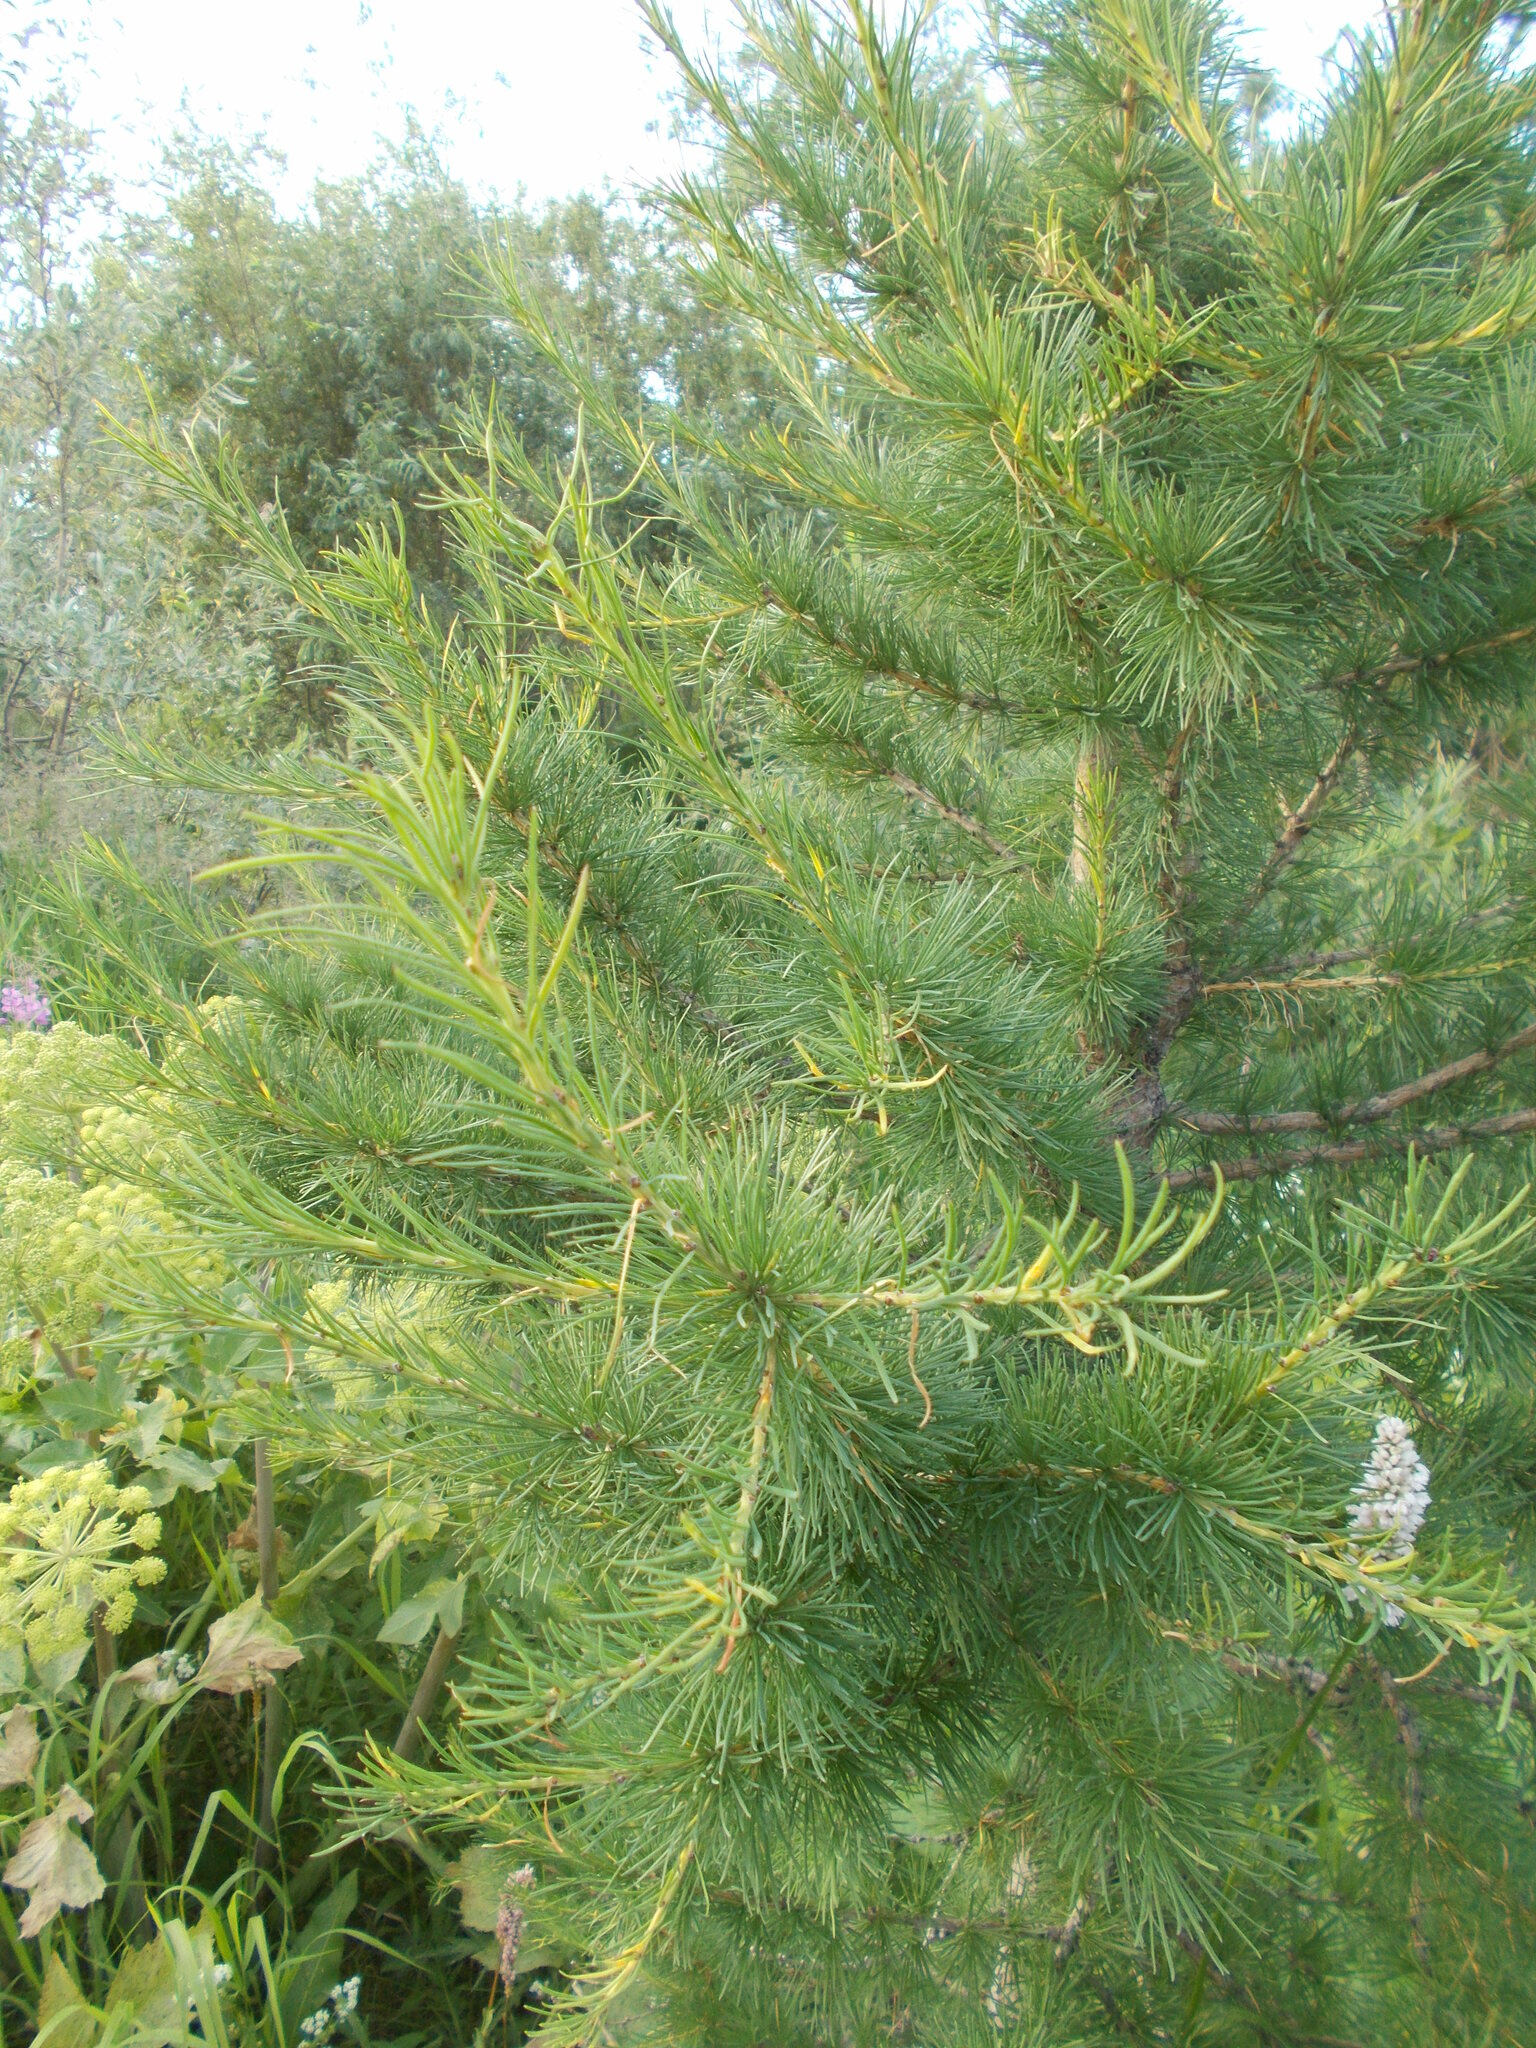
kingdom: Plantae
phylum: Tracheophyta
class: Pinopsida
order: Pinales
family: Pinaceae
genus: Larix
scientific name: Larix sibirica
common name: Siberian larch
